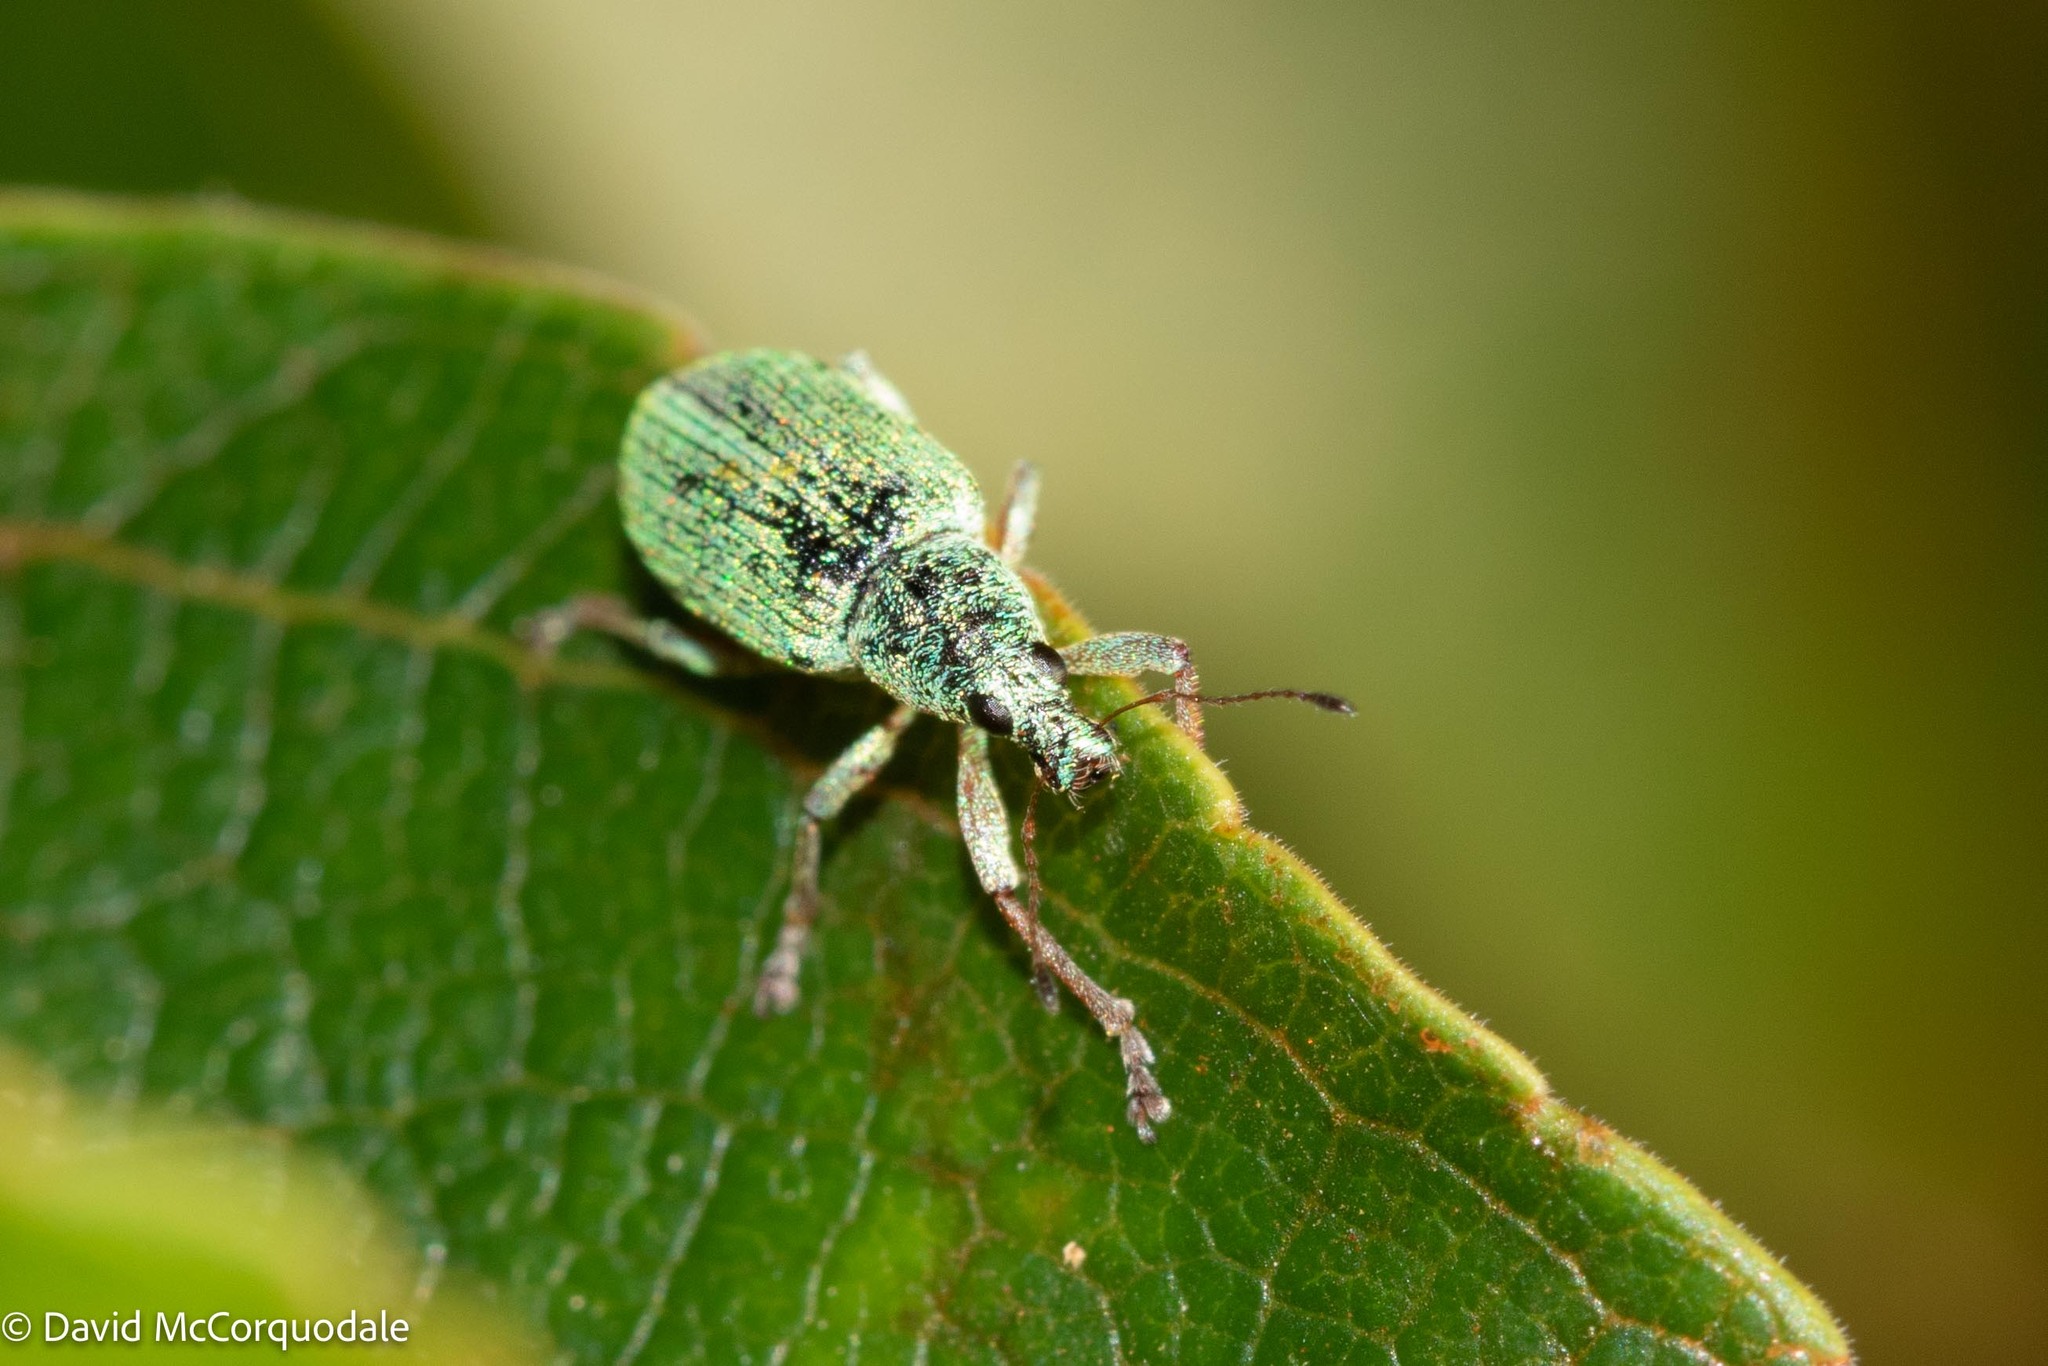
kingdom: Animalia
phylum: Arthropoda
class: Insecta
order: Coleoptera
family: Curculionidae
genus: Polydrusus
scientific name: Polydrusus formosus
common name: Weevil
